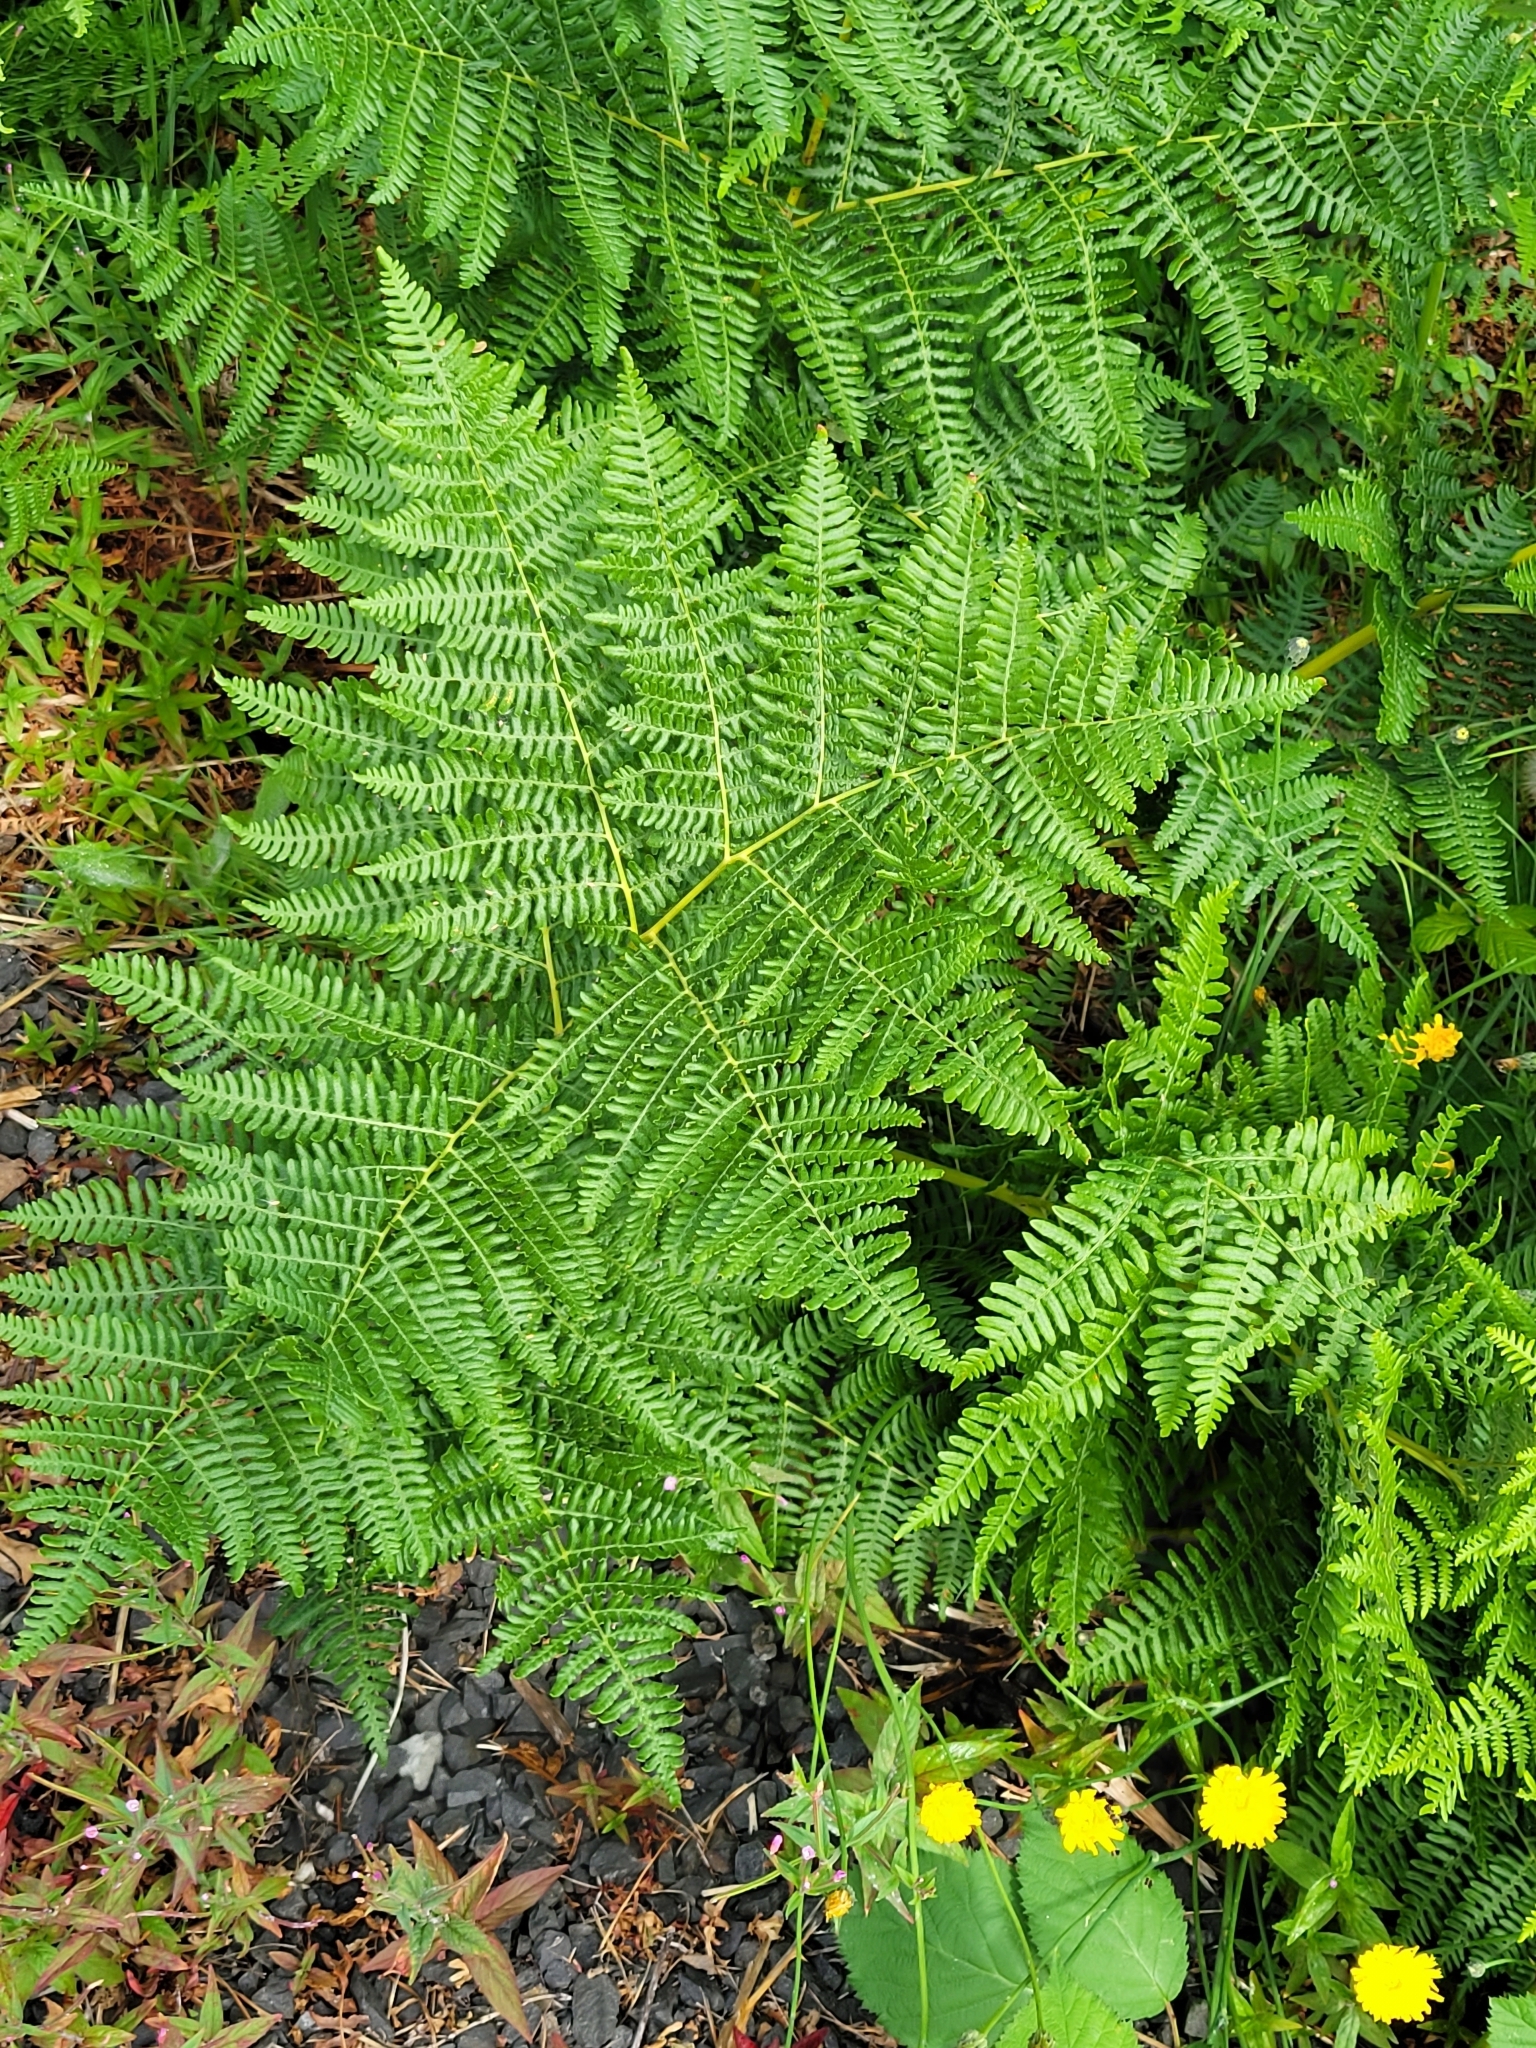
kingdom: Plantae
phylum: Tracheophyta
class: Polypodiopsida
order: Polypodiales
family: Dennstaedtiaceae
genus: Pteridium
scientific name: Pteridium aquilinum
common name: Bracken
